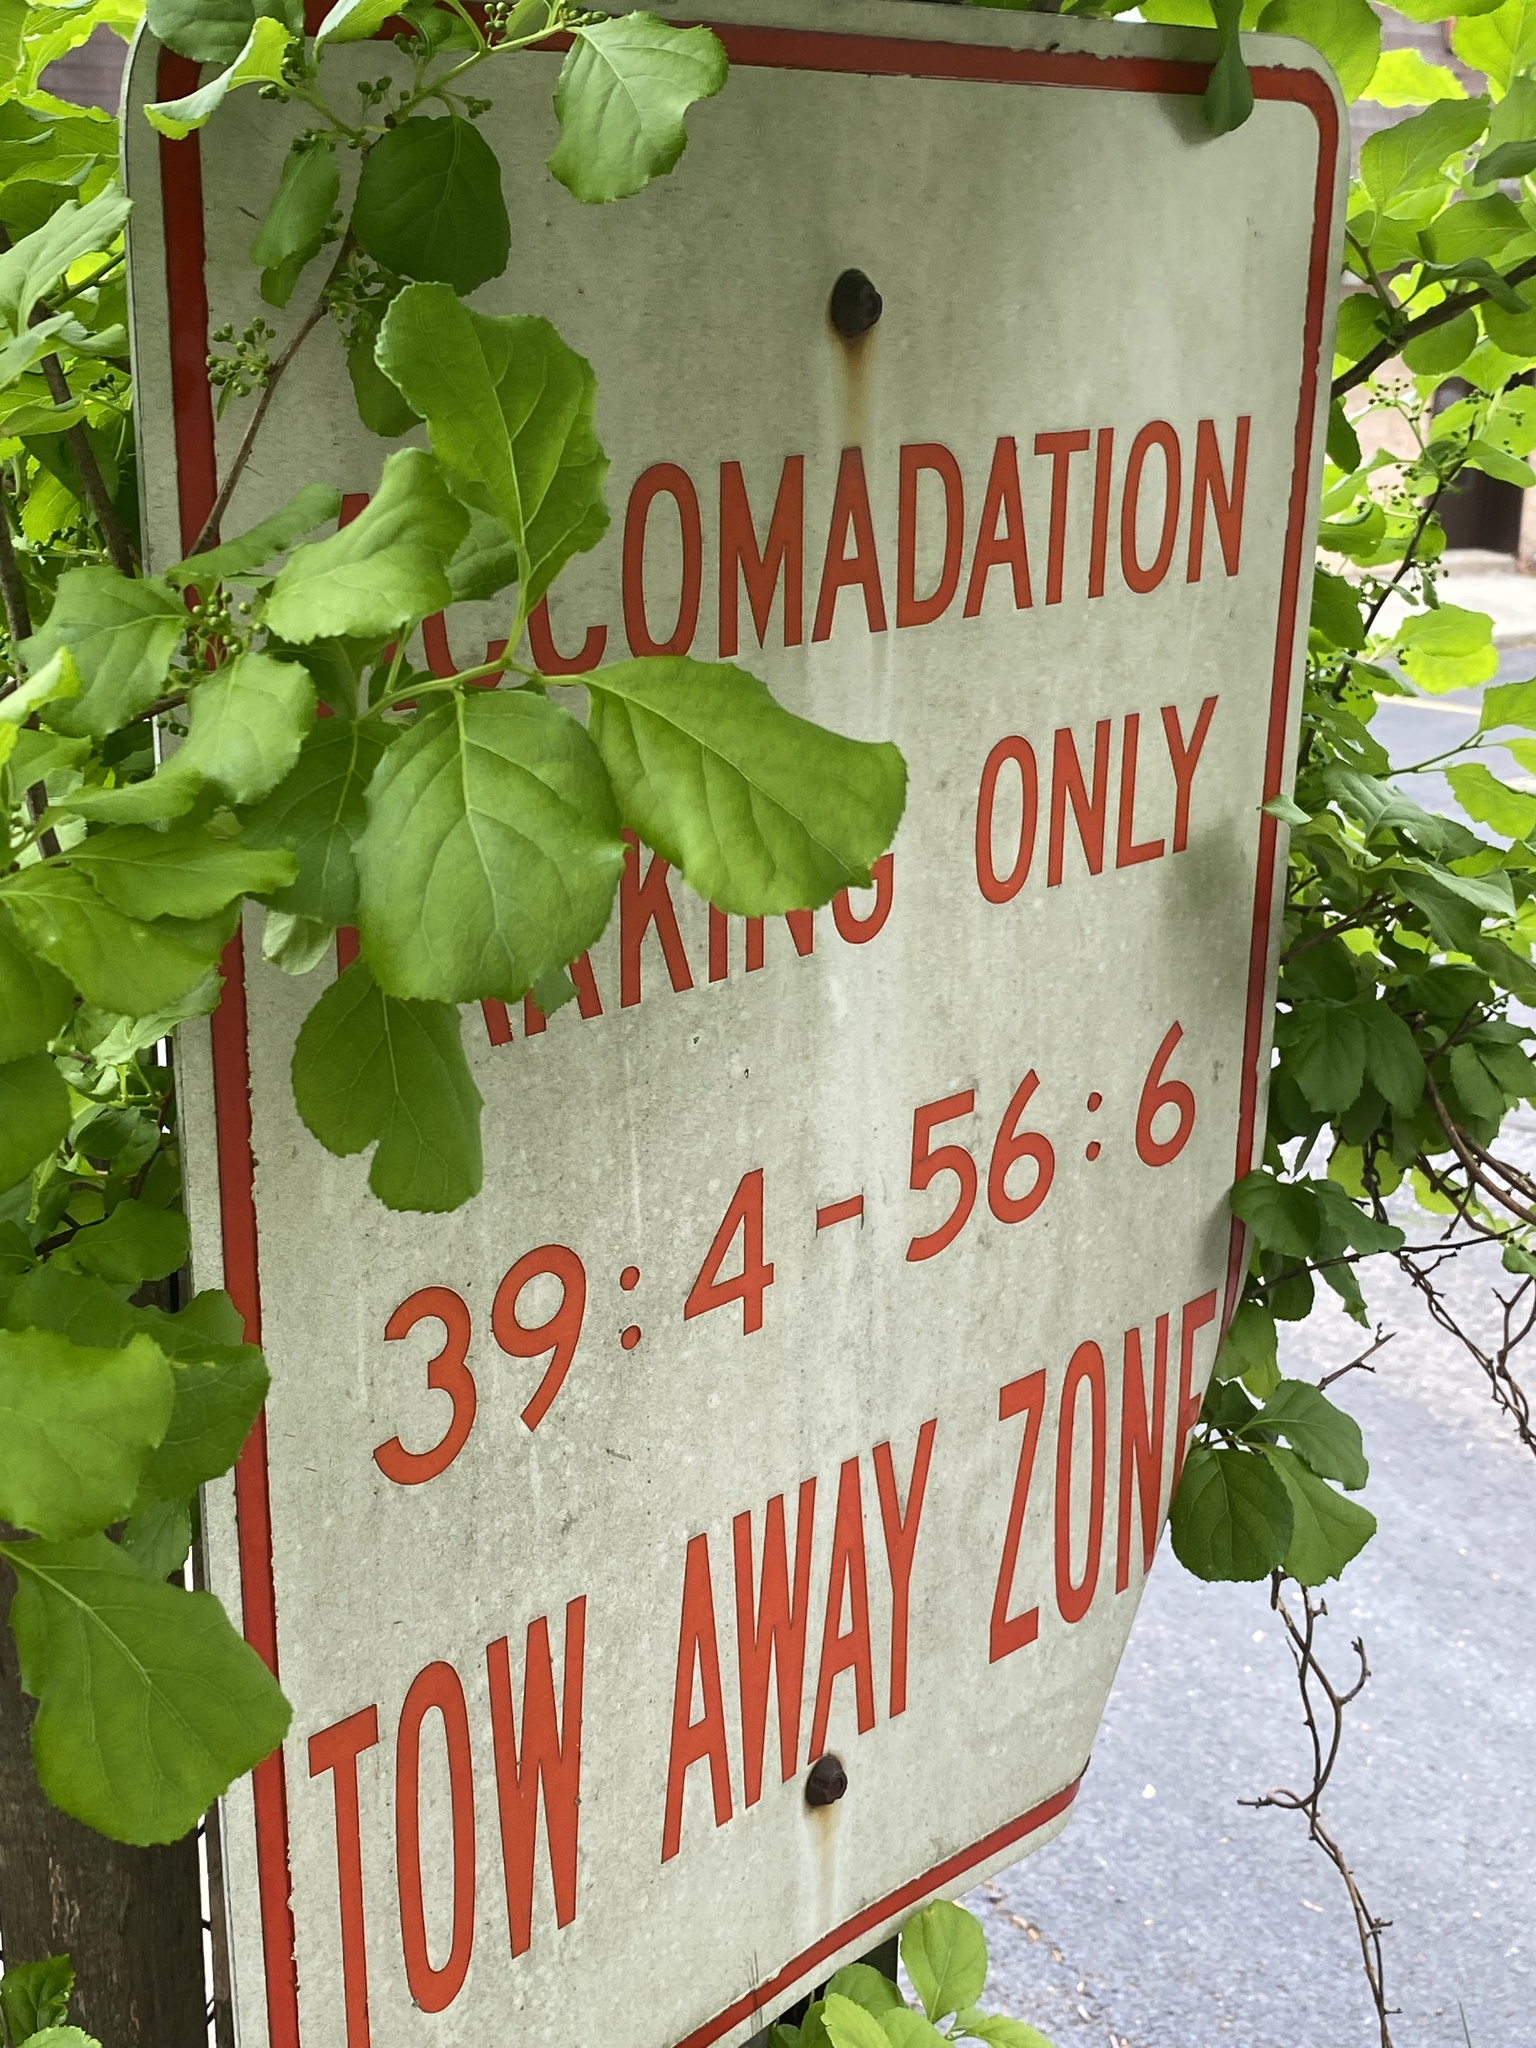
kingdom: Plantae
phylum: Tracheophyta
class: Magnoliopsida
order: Celastrales
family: Celastraceae
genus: Celastrus
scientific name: Celastrus orbiculatus
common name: Oriental bittersweet
